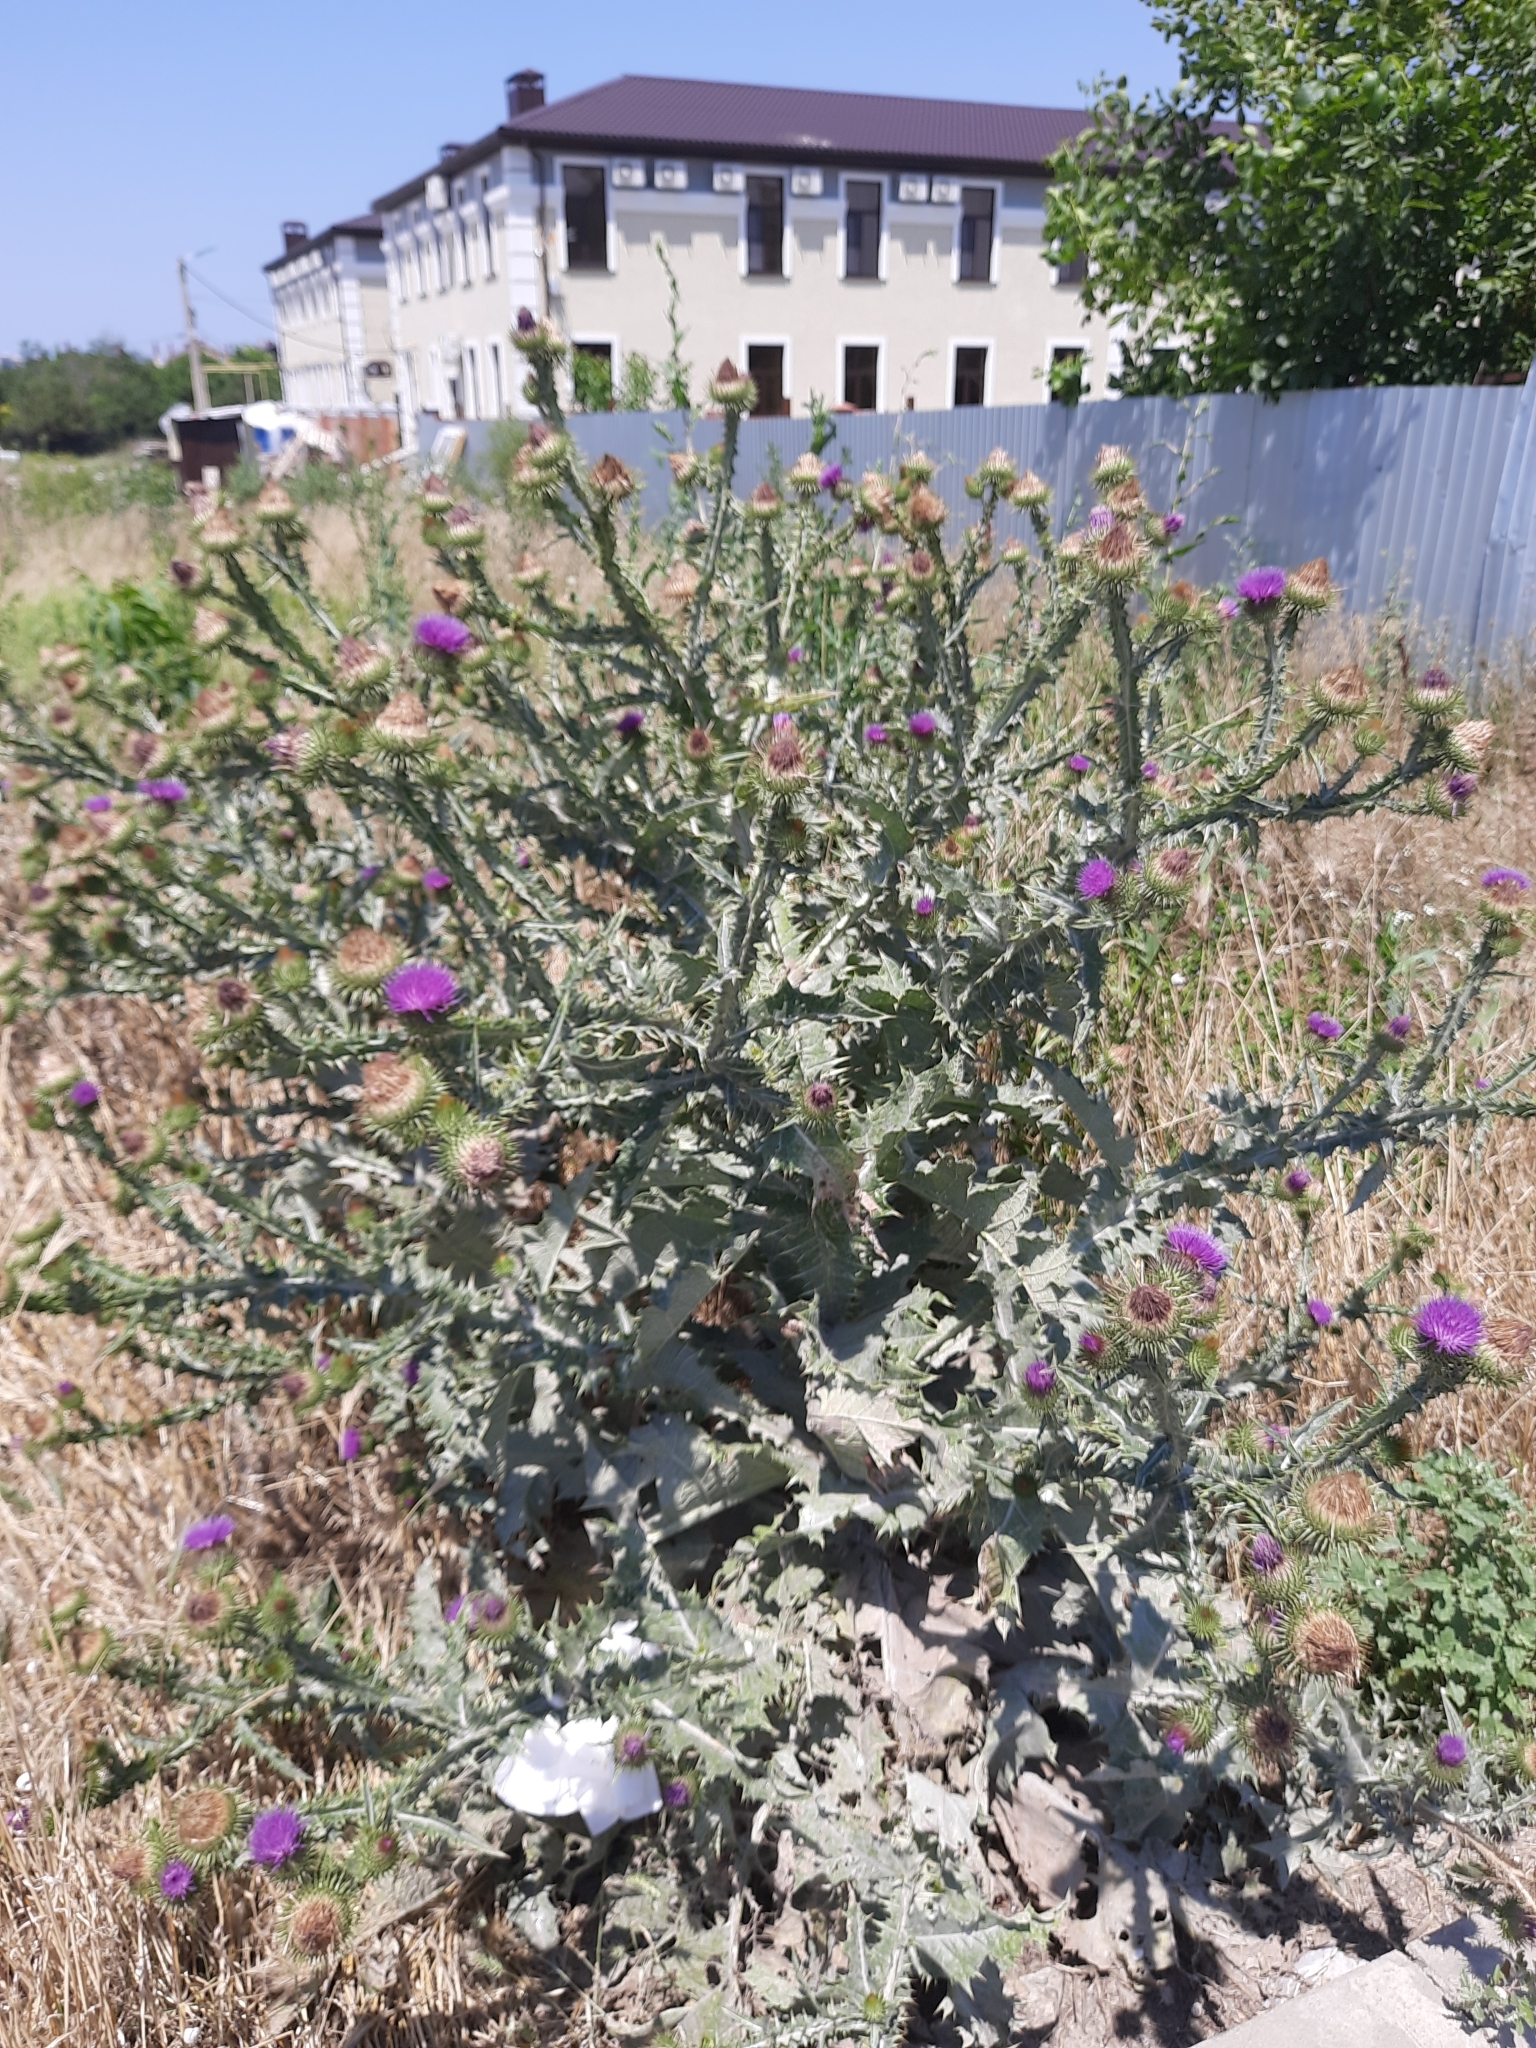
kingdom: Plantae
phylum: Tracheophyta
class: Magnoliopsida
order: Asterales
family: Asteraceae
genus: Onopordum
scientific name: Onopordum acanthium
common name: Scotch thistle
